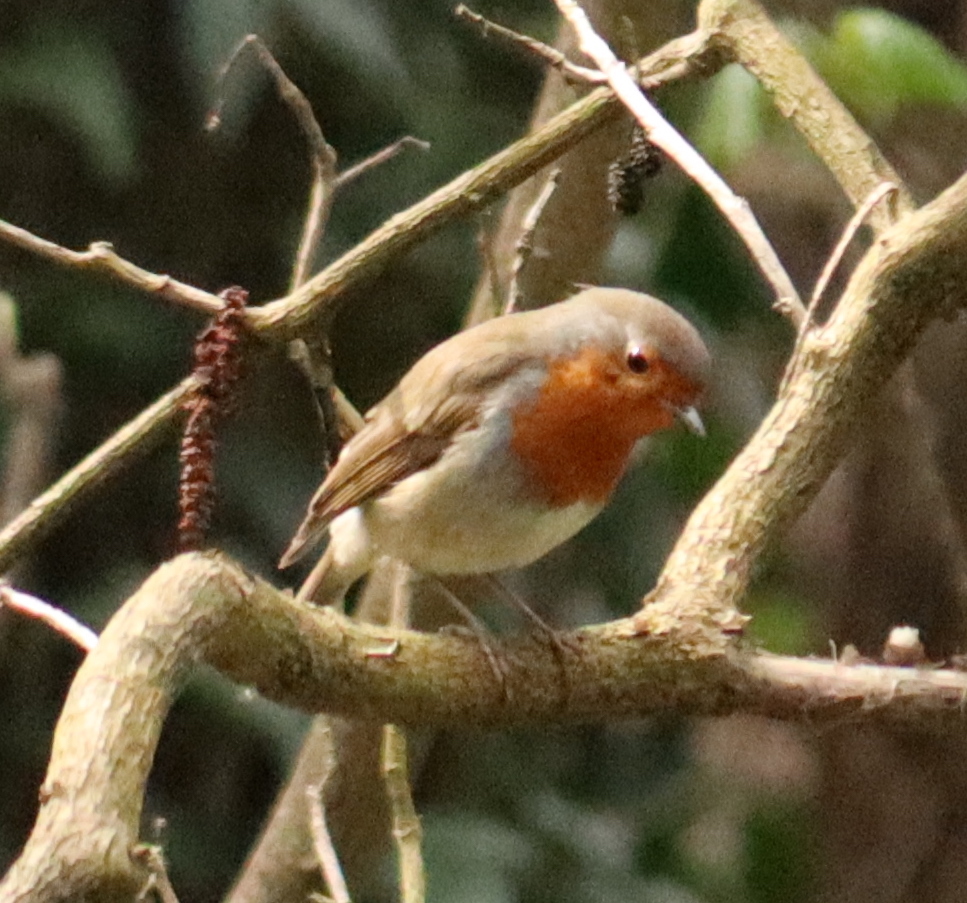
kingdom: Animalia
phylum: Chordata
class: Aves
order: Passeriformes
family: Muscicapidae
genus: Erithacus
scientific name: Erithacus rubecula
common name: European robin
